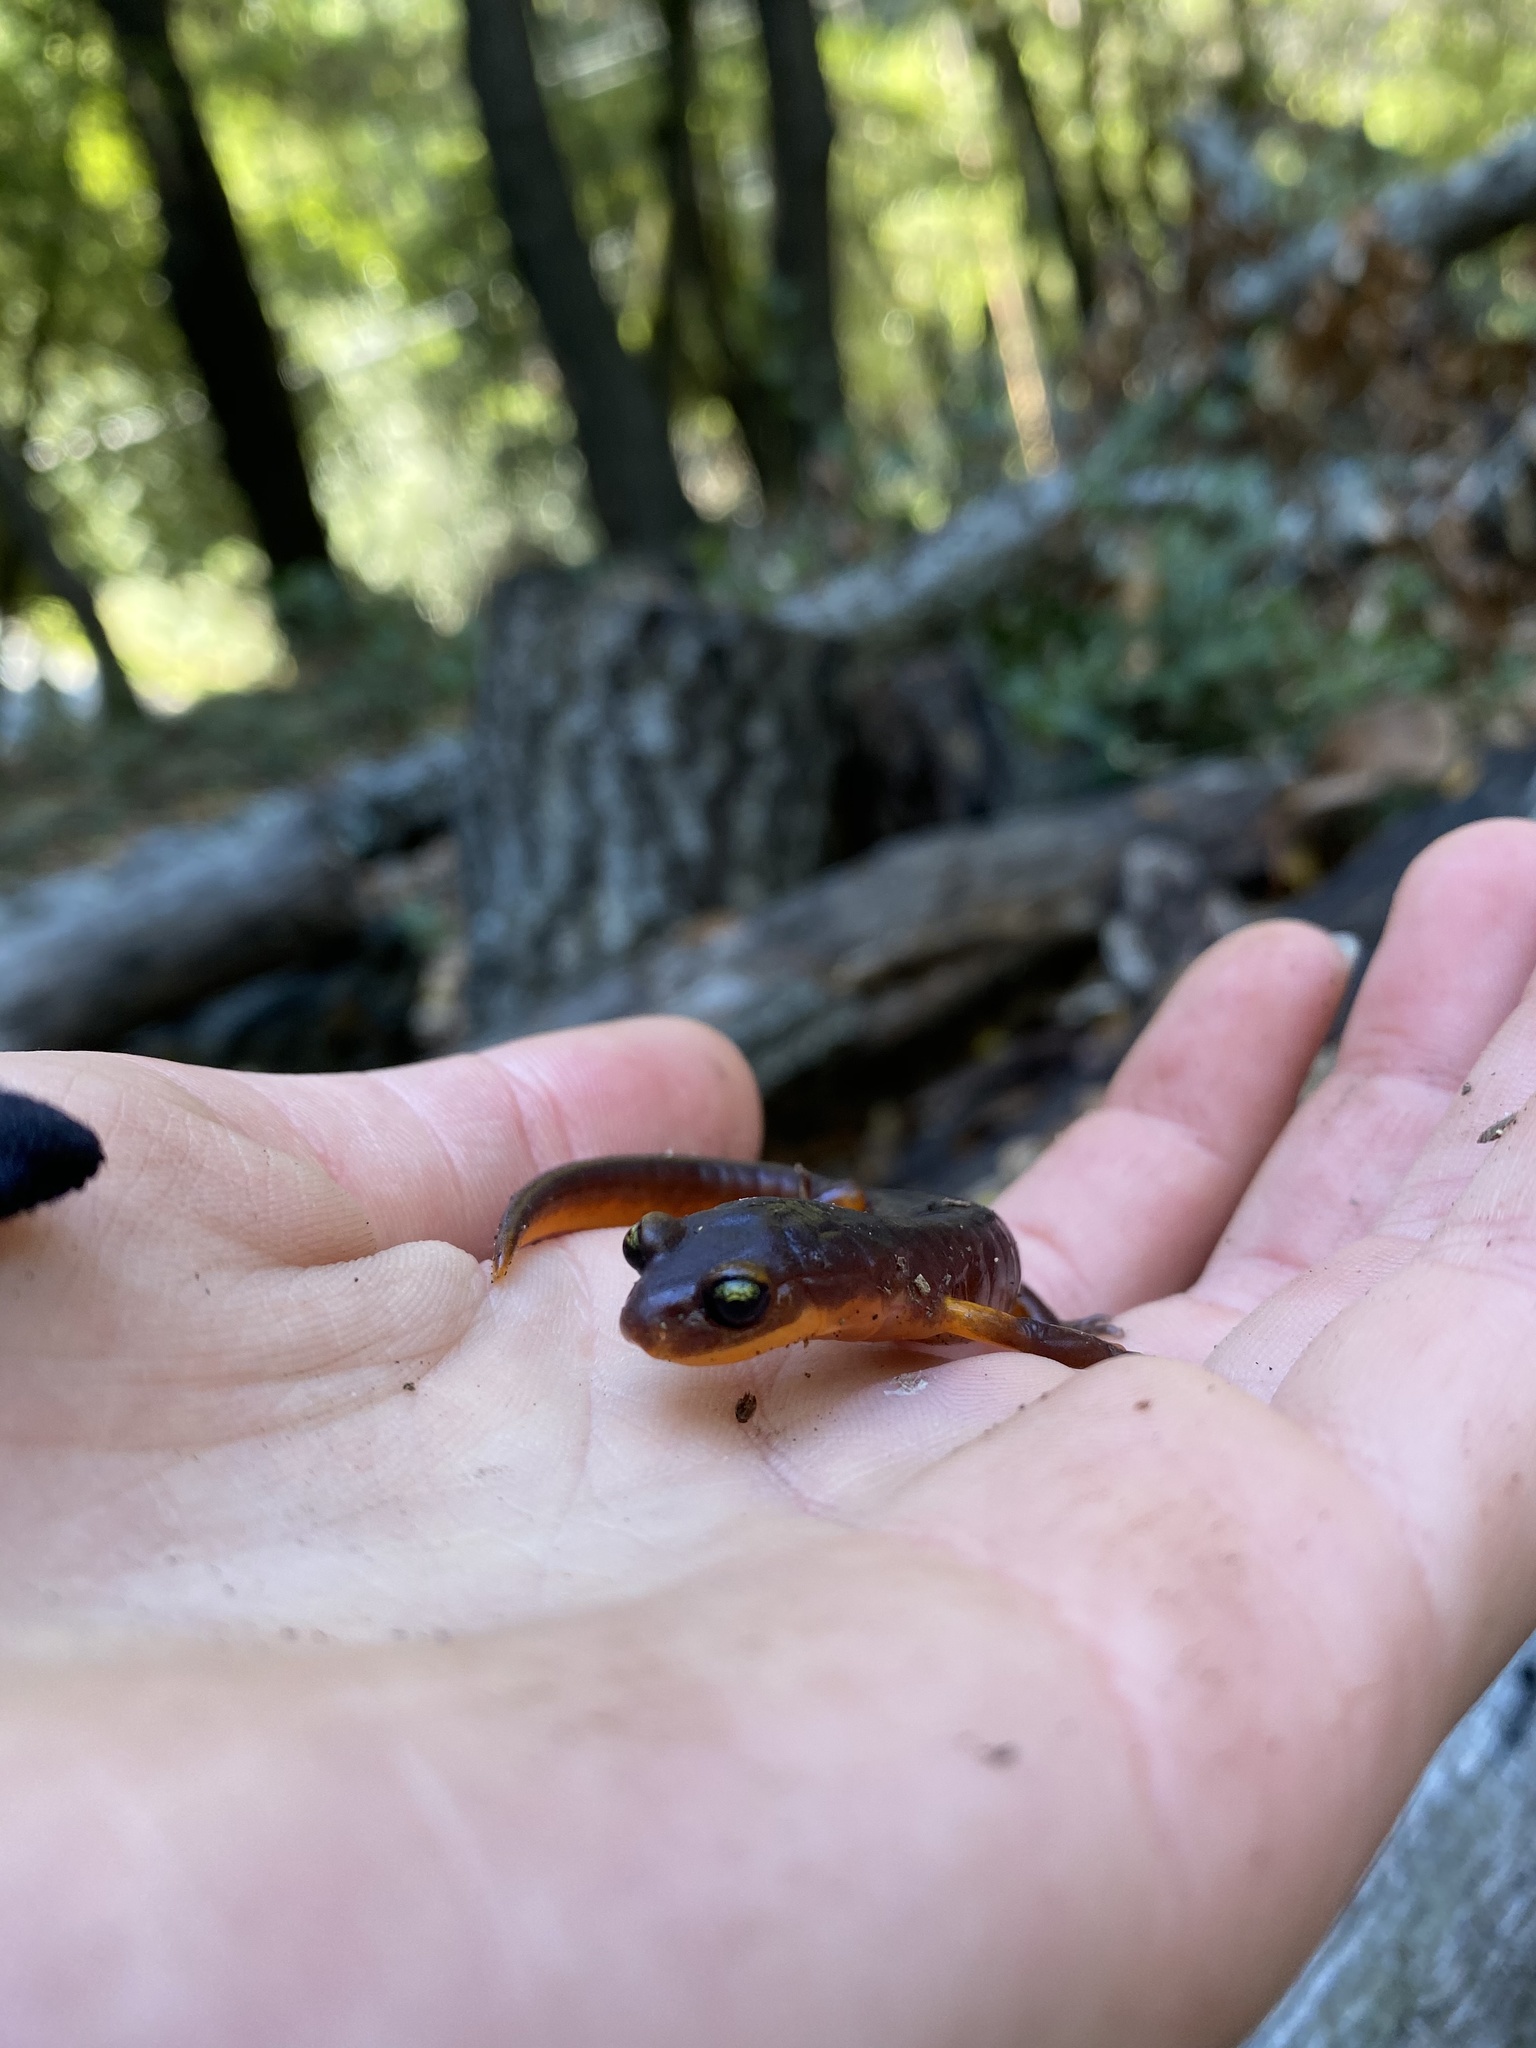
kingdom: Animalia
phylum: Chordata
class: Amphibia
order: Caudata
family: Plethodontidae
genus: Ensatina
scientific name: Ensatina eschscholtzii
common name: Ensatina
